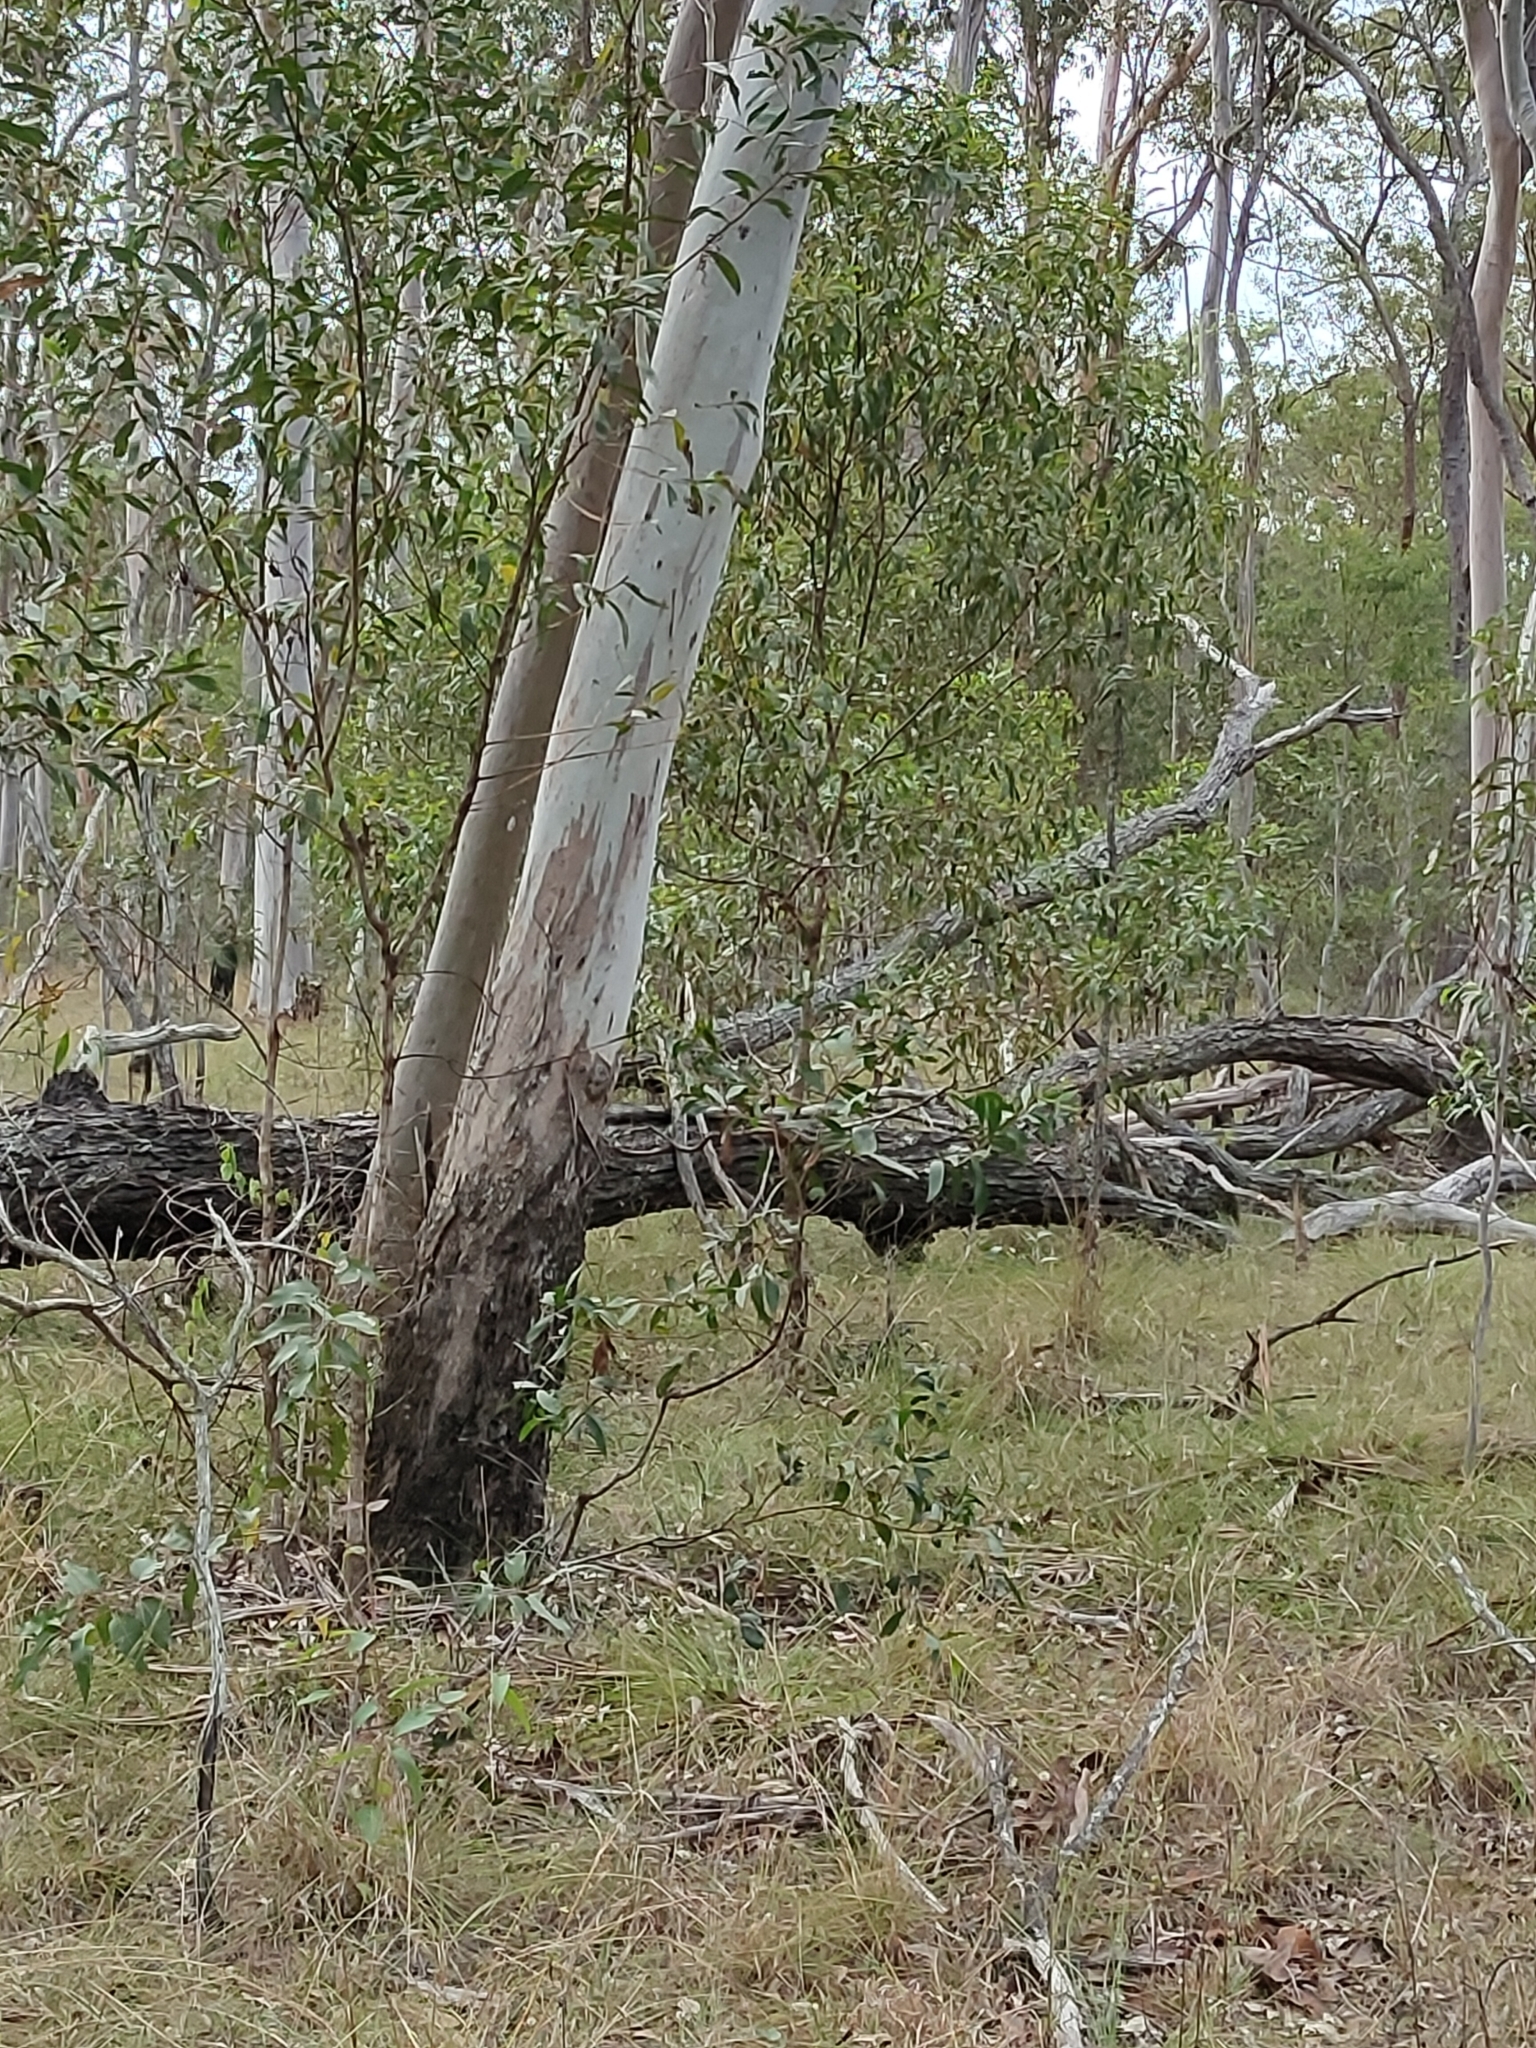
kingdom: Plantae
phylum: Tracheophyta
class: Magnoliopsida
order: Myrtales
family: Myrtaceae
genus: Eucalyptus
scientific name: Eucalyptus tereticornis
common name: Forest redgum
